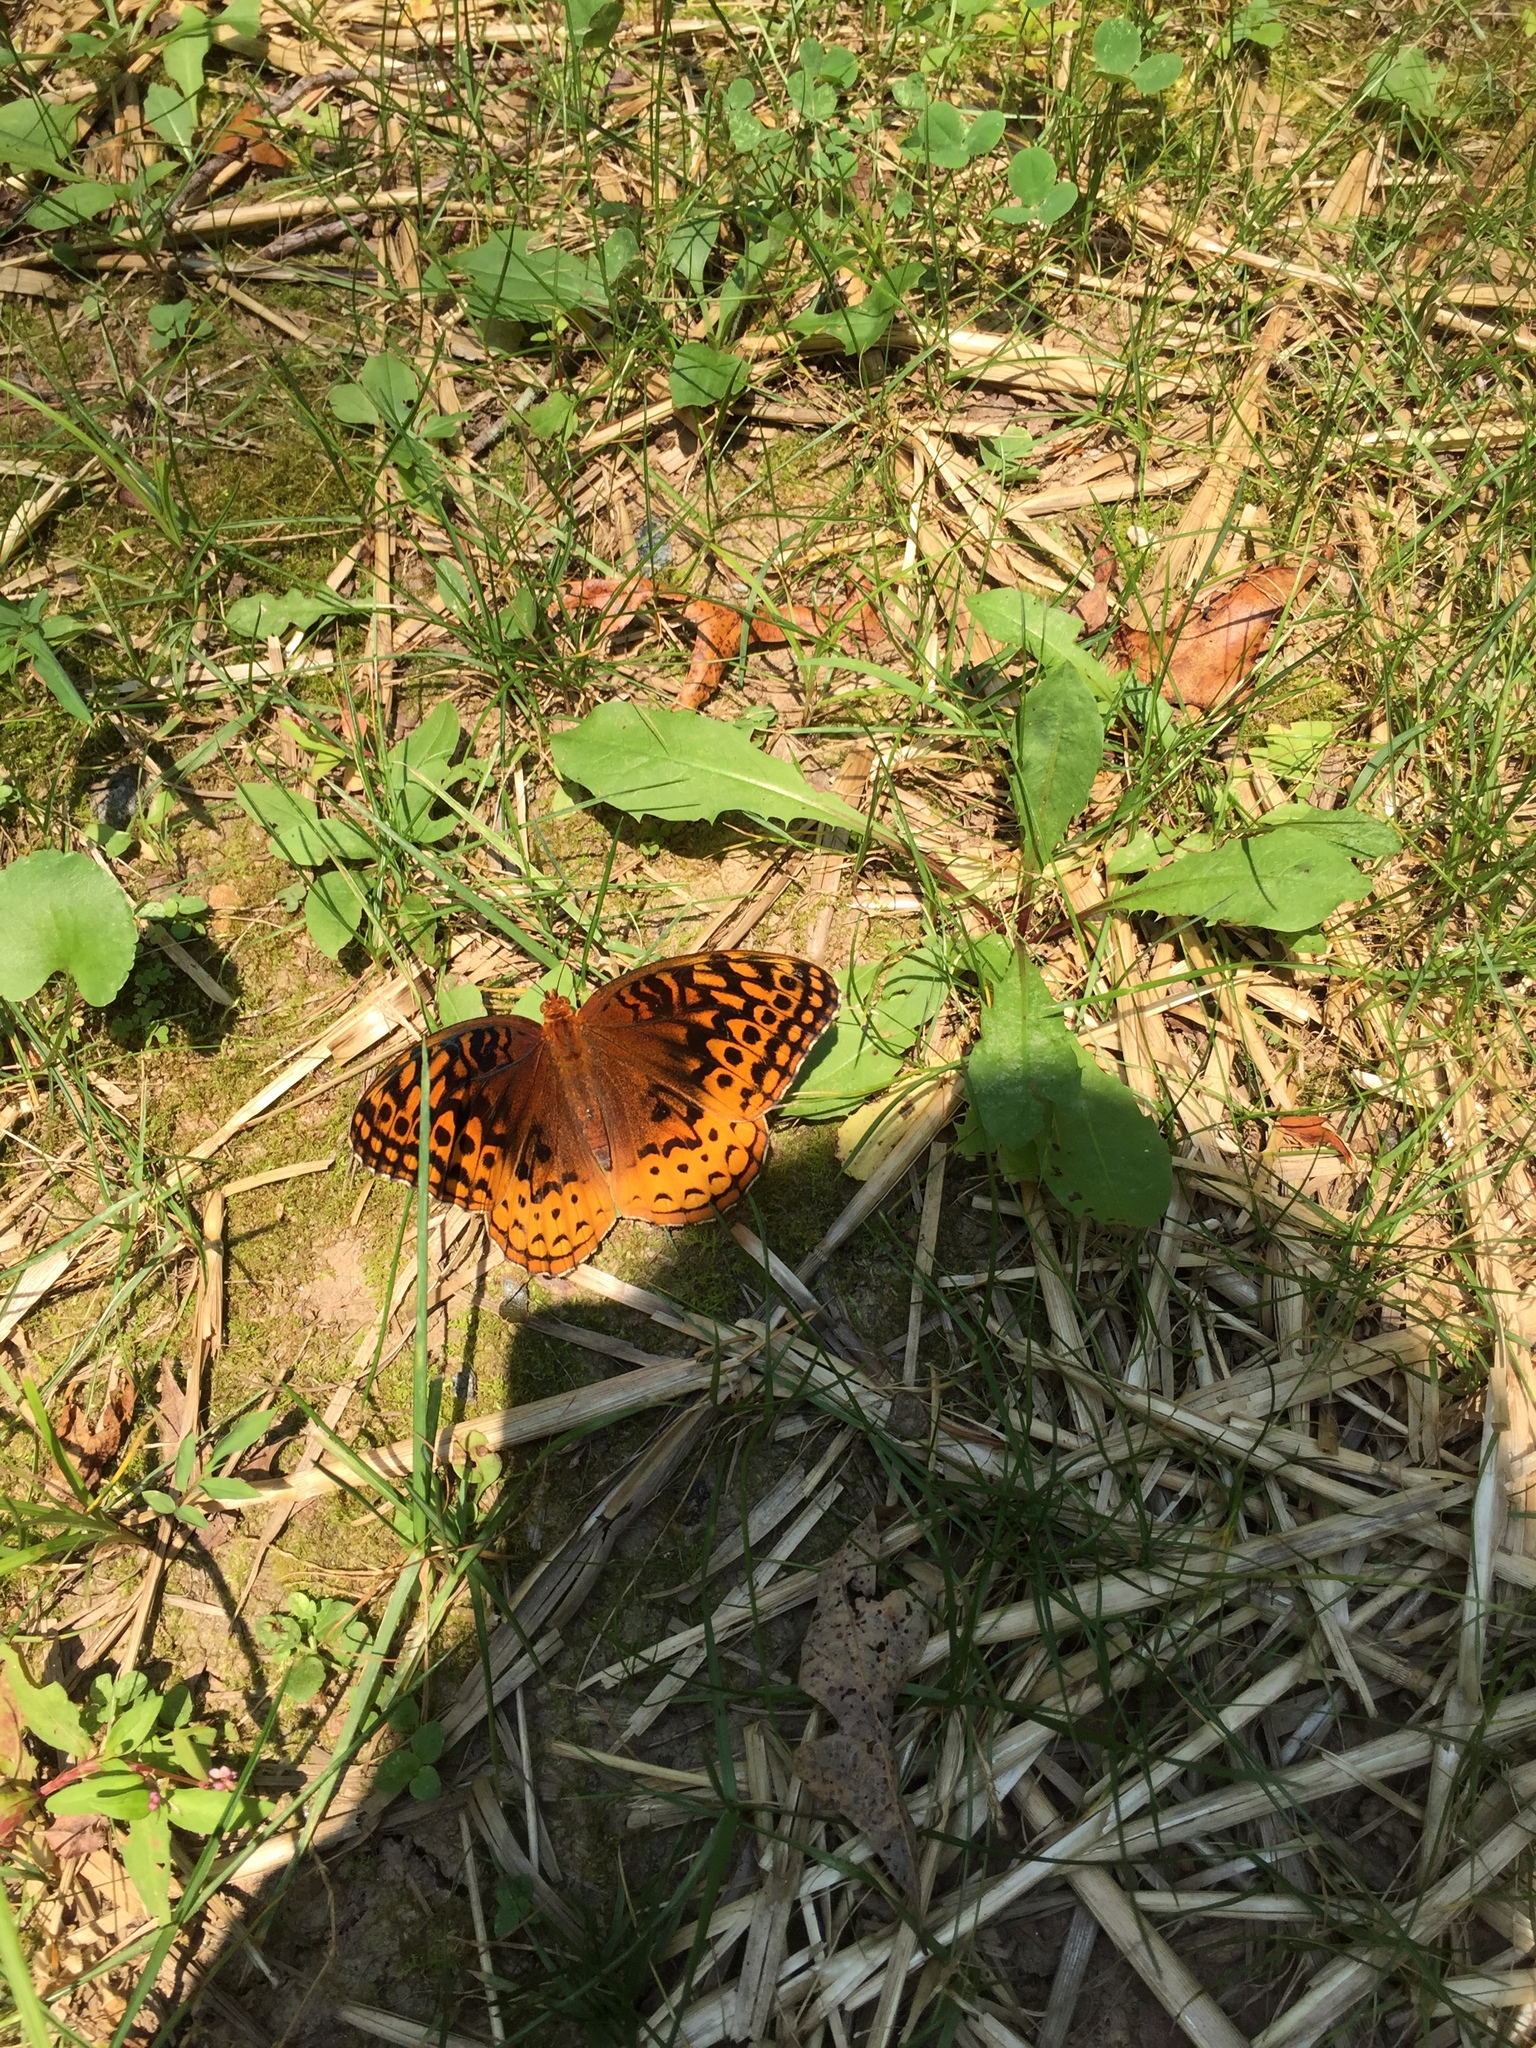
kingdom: Animalia
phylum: Arthropoda
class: Insecta
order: Lepidoptera
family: Nymphalidae
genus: Speyeria
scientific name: Speyeria cybele
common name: Great spangled fritillary
